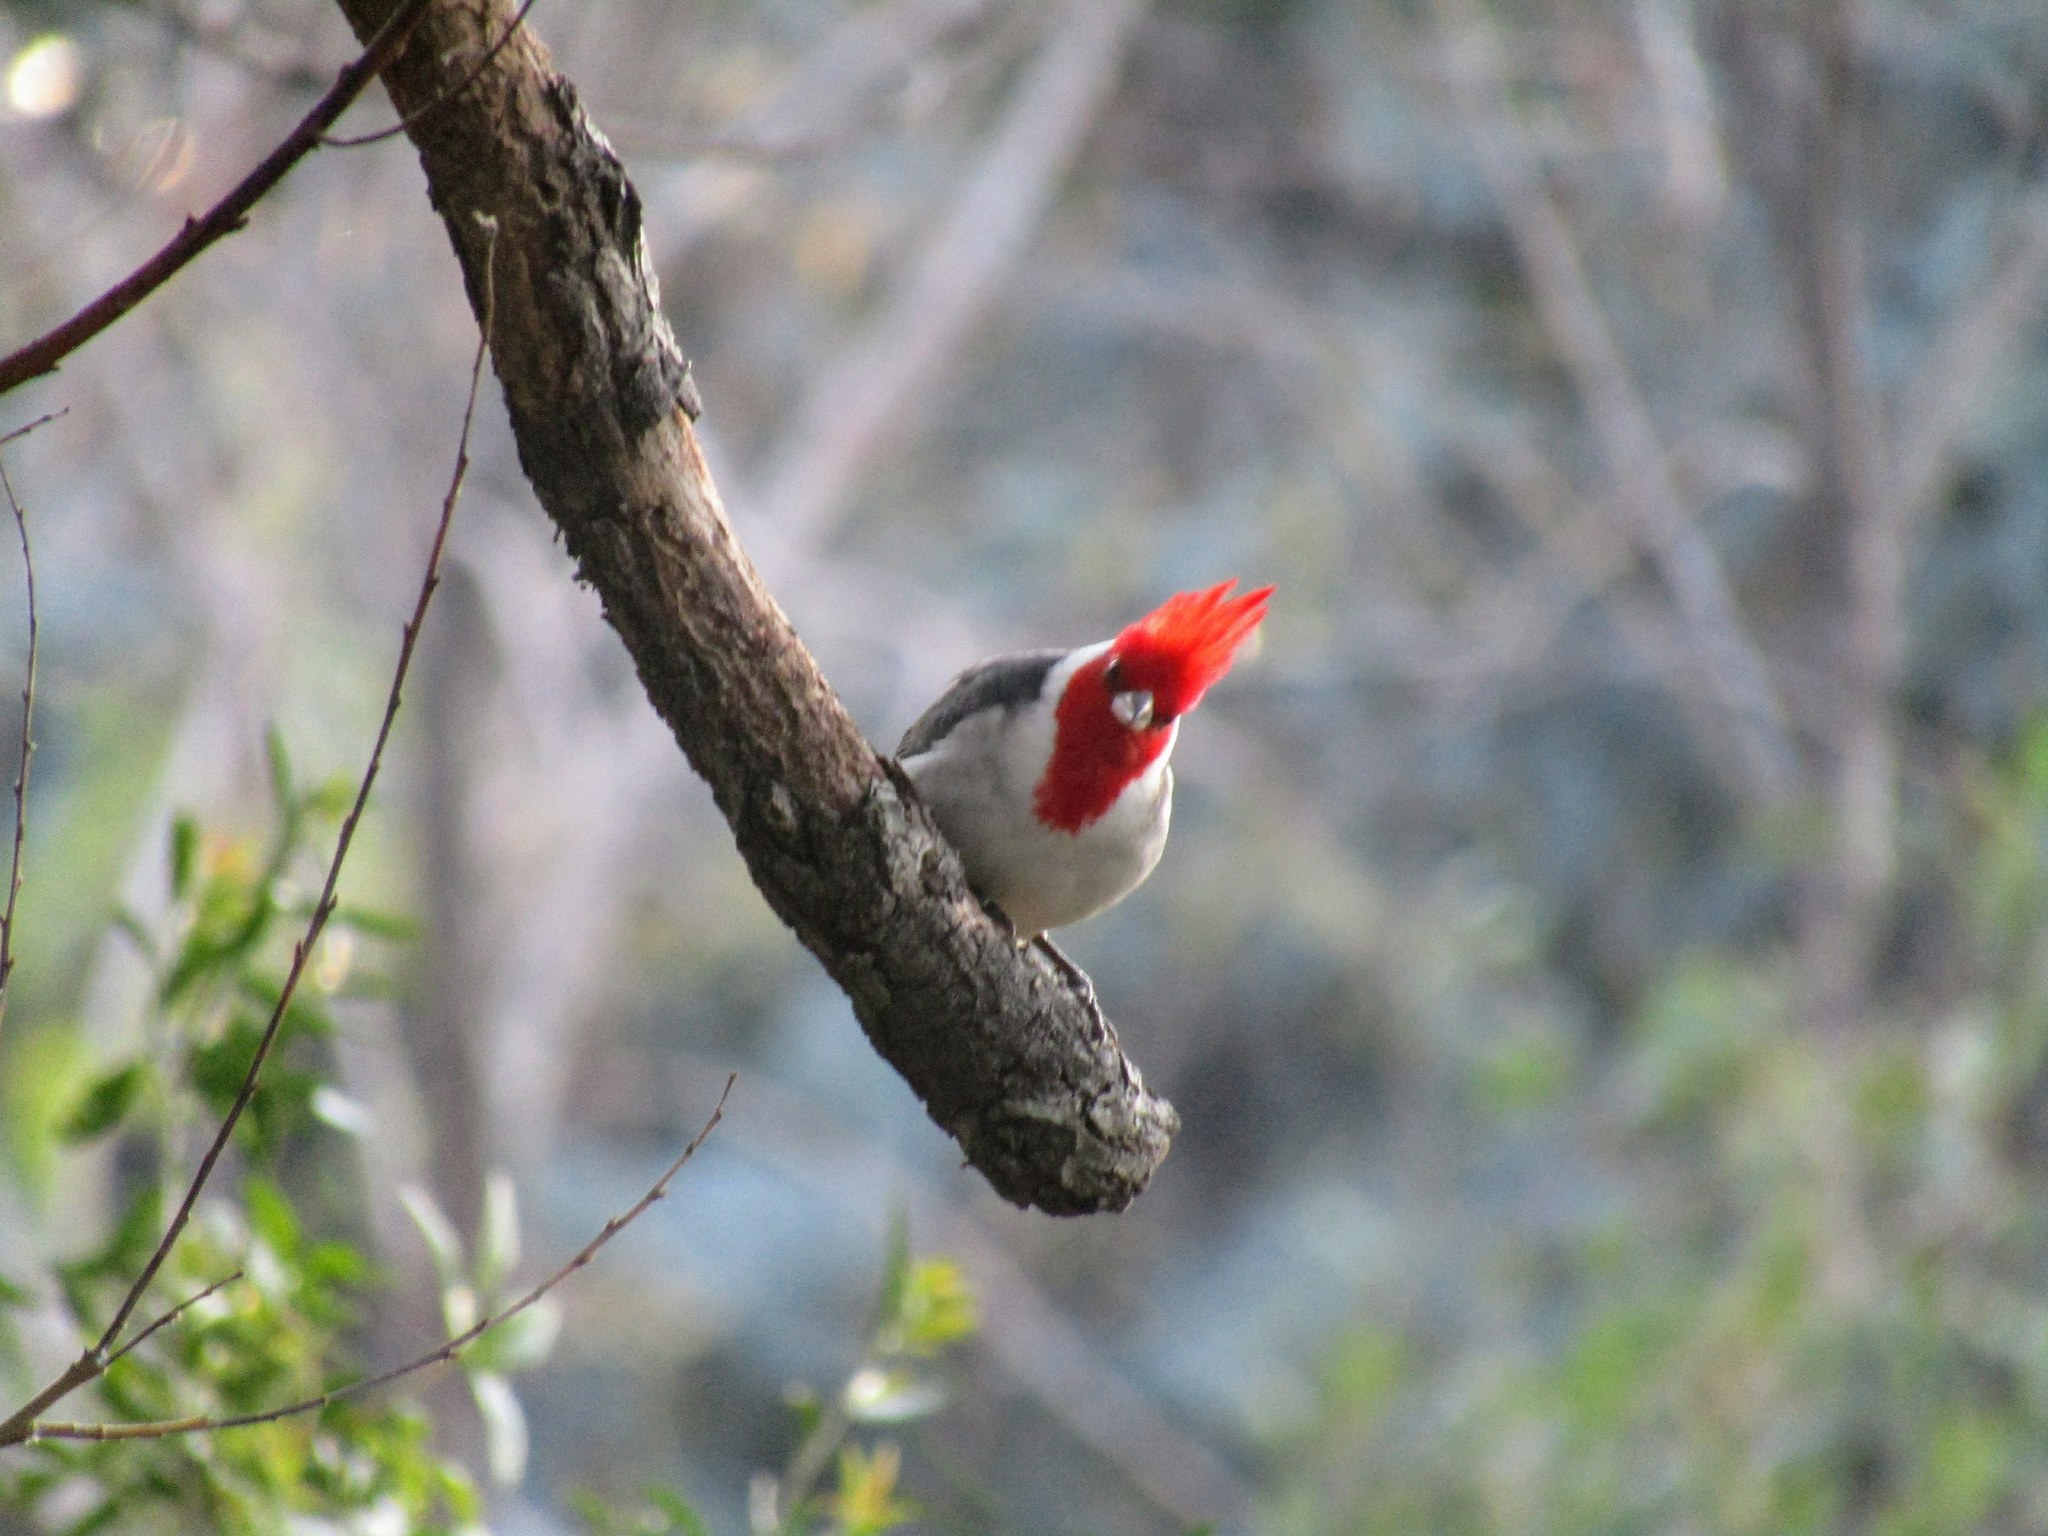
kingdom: Animalia
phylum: Chordata
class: Aves
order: Passeriformes
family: Thraupidae
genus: Paroaria
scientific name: Paroaria coronata
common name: Red-crested cardinal
